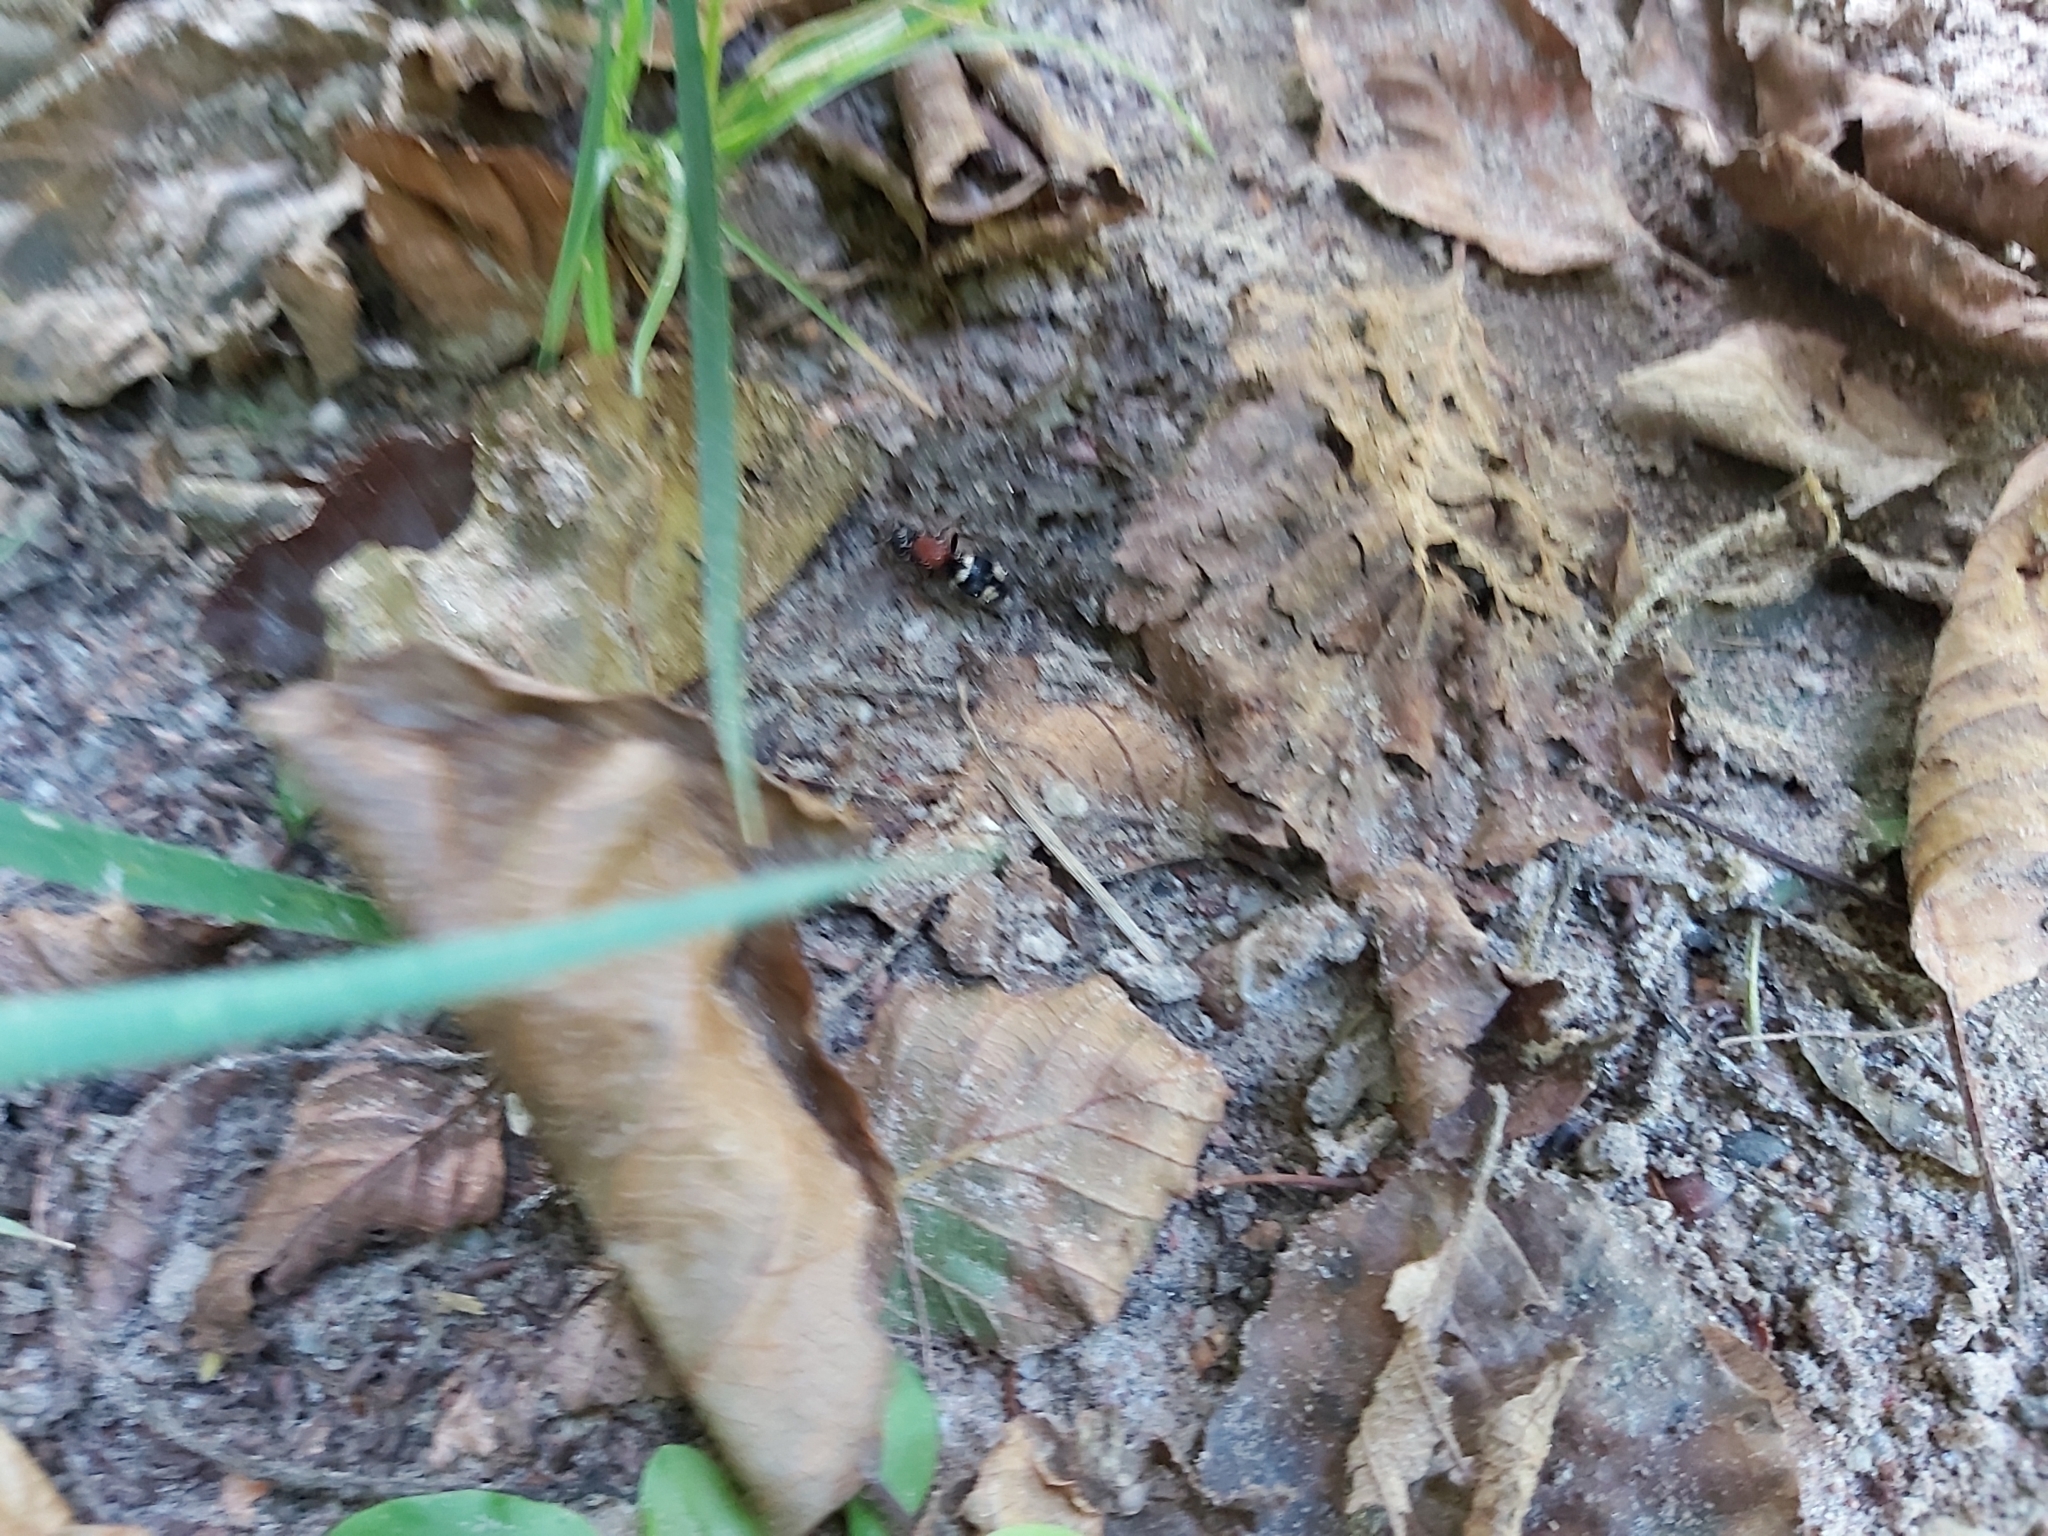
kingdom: Animalia
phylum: Arthropoda
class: Insecta
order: Hymenoptera
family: Mutillidae
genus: Mutilla
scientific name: Mutilla europaea
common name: Large velvet ant
